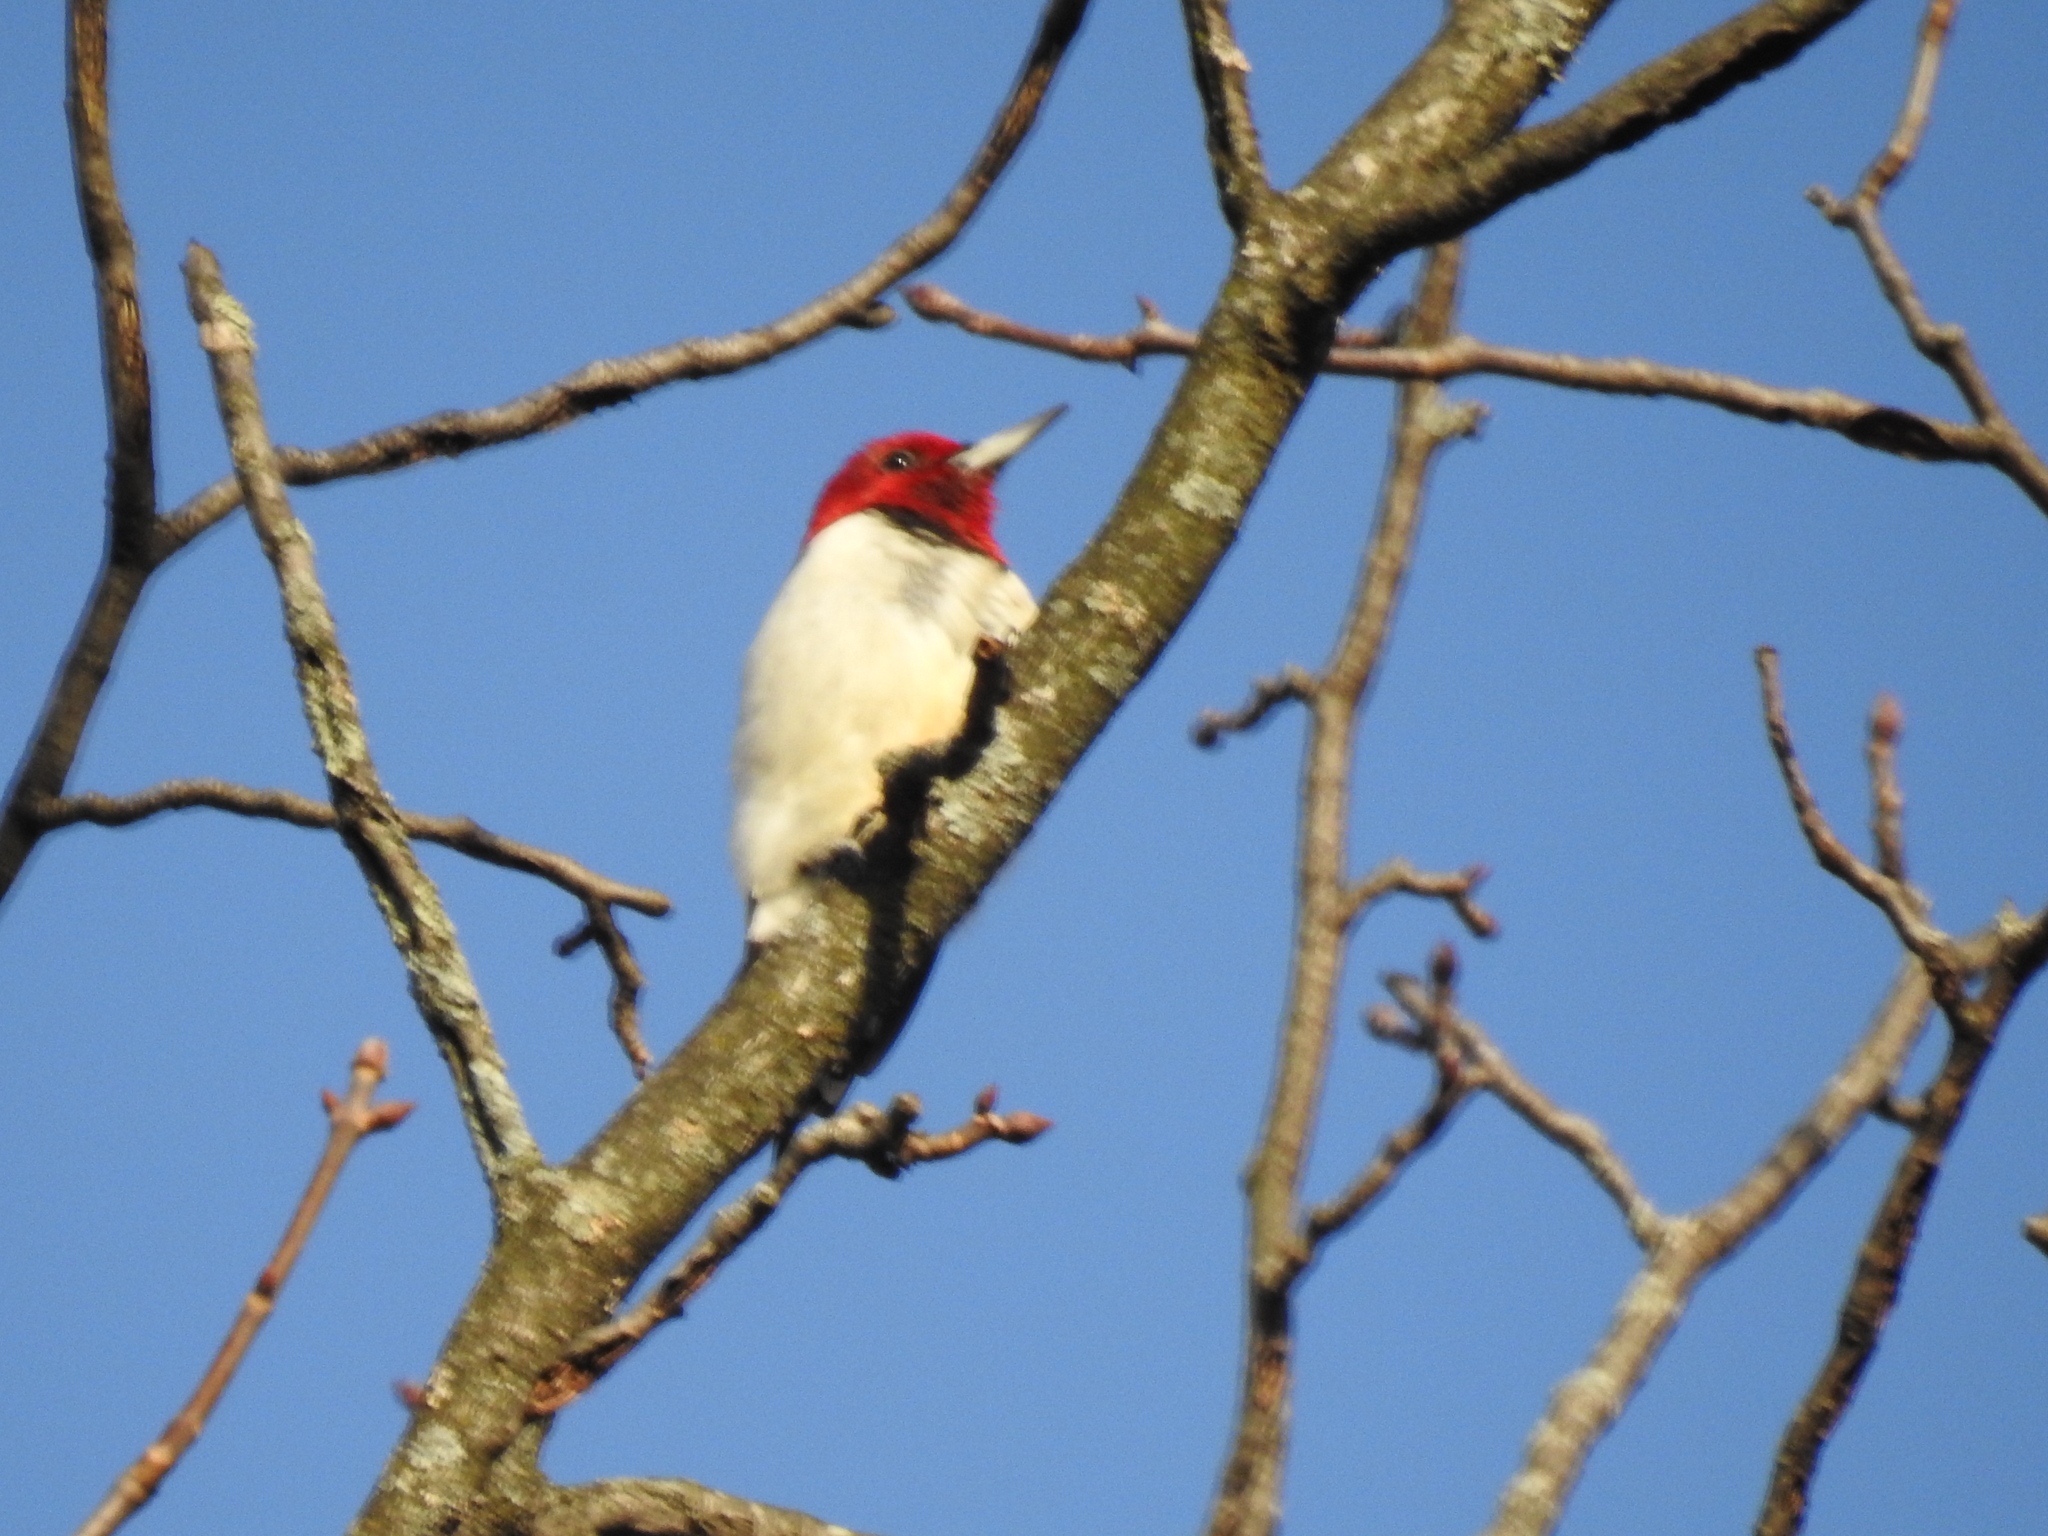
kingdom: Animalia
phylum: Chordata
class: Aves
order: Piciformes
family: Picidae
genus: Melanerpes
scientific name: Melanerpes erythrocephalus
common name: Red-headed woodpecker
